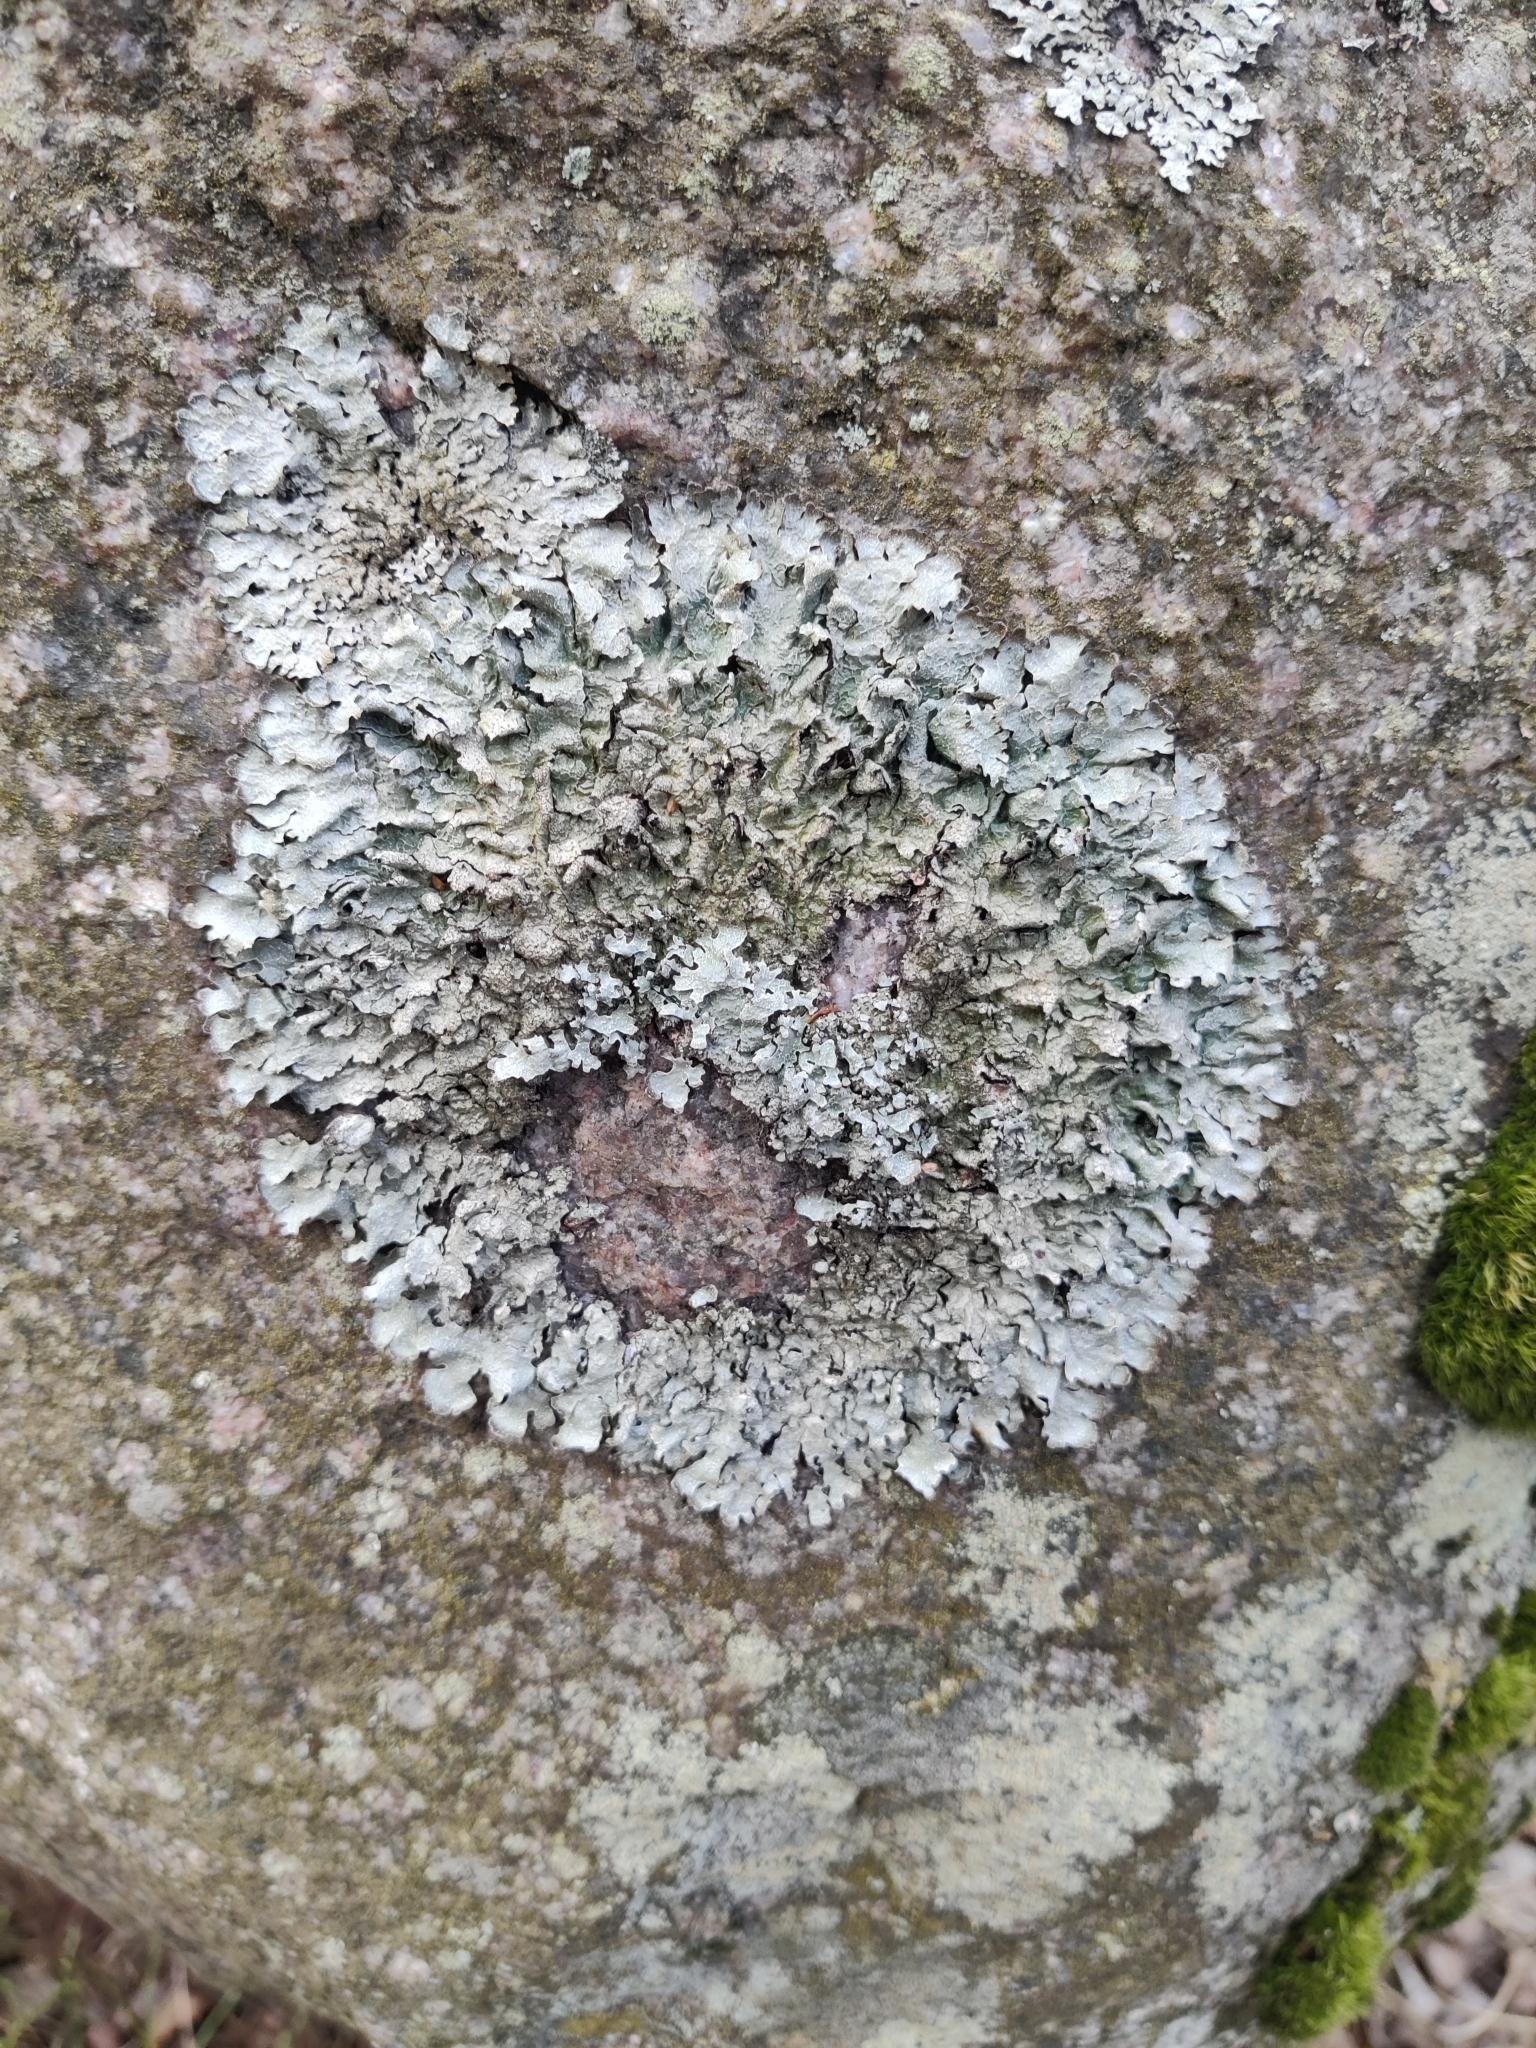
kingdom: Fungi
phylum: Ascomycota
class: Lecanoromycetes
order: Lecanorales
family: Parmeliaceae
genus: Parmelia
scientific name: Parmelia saxatilis
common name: Salted shield lichen
